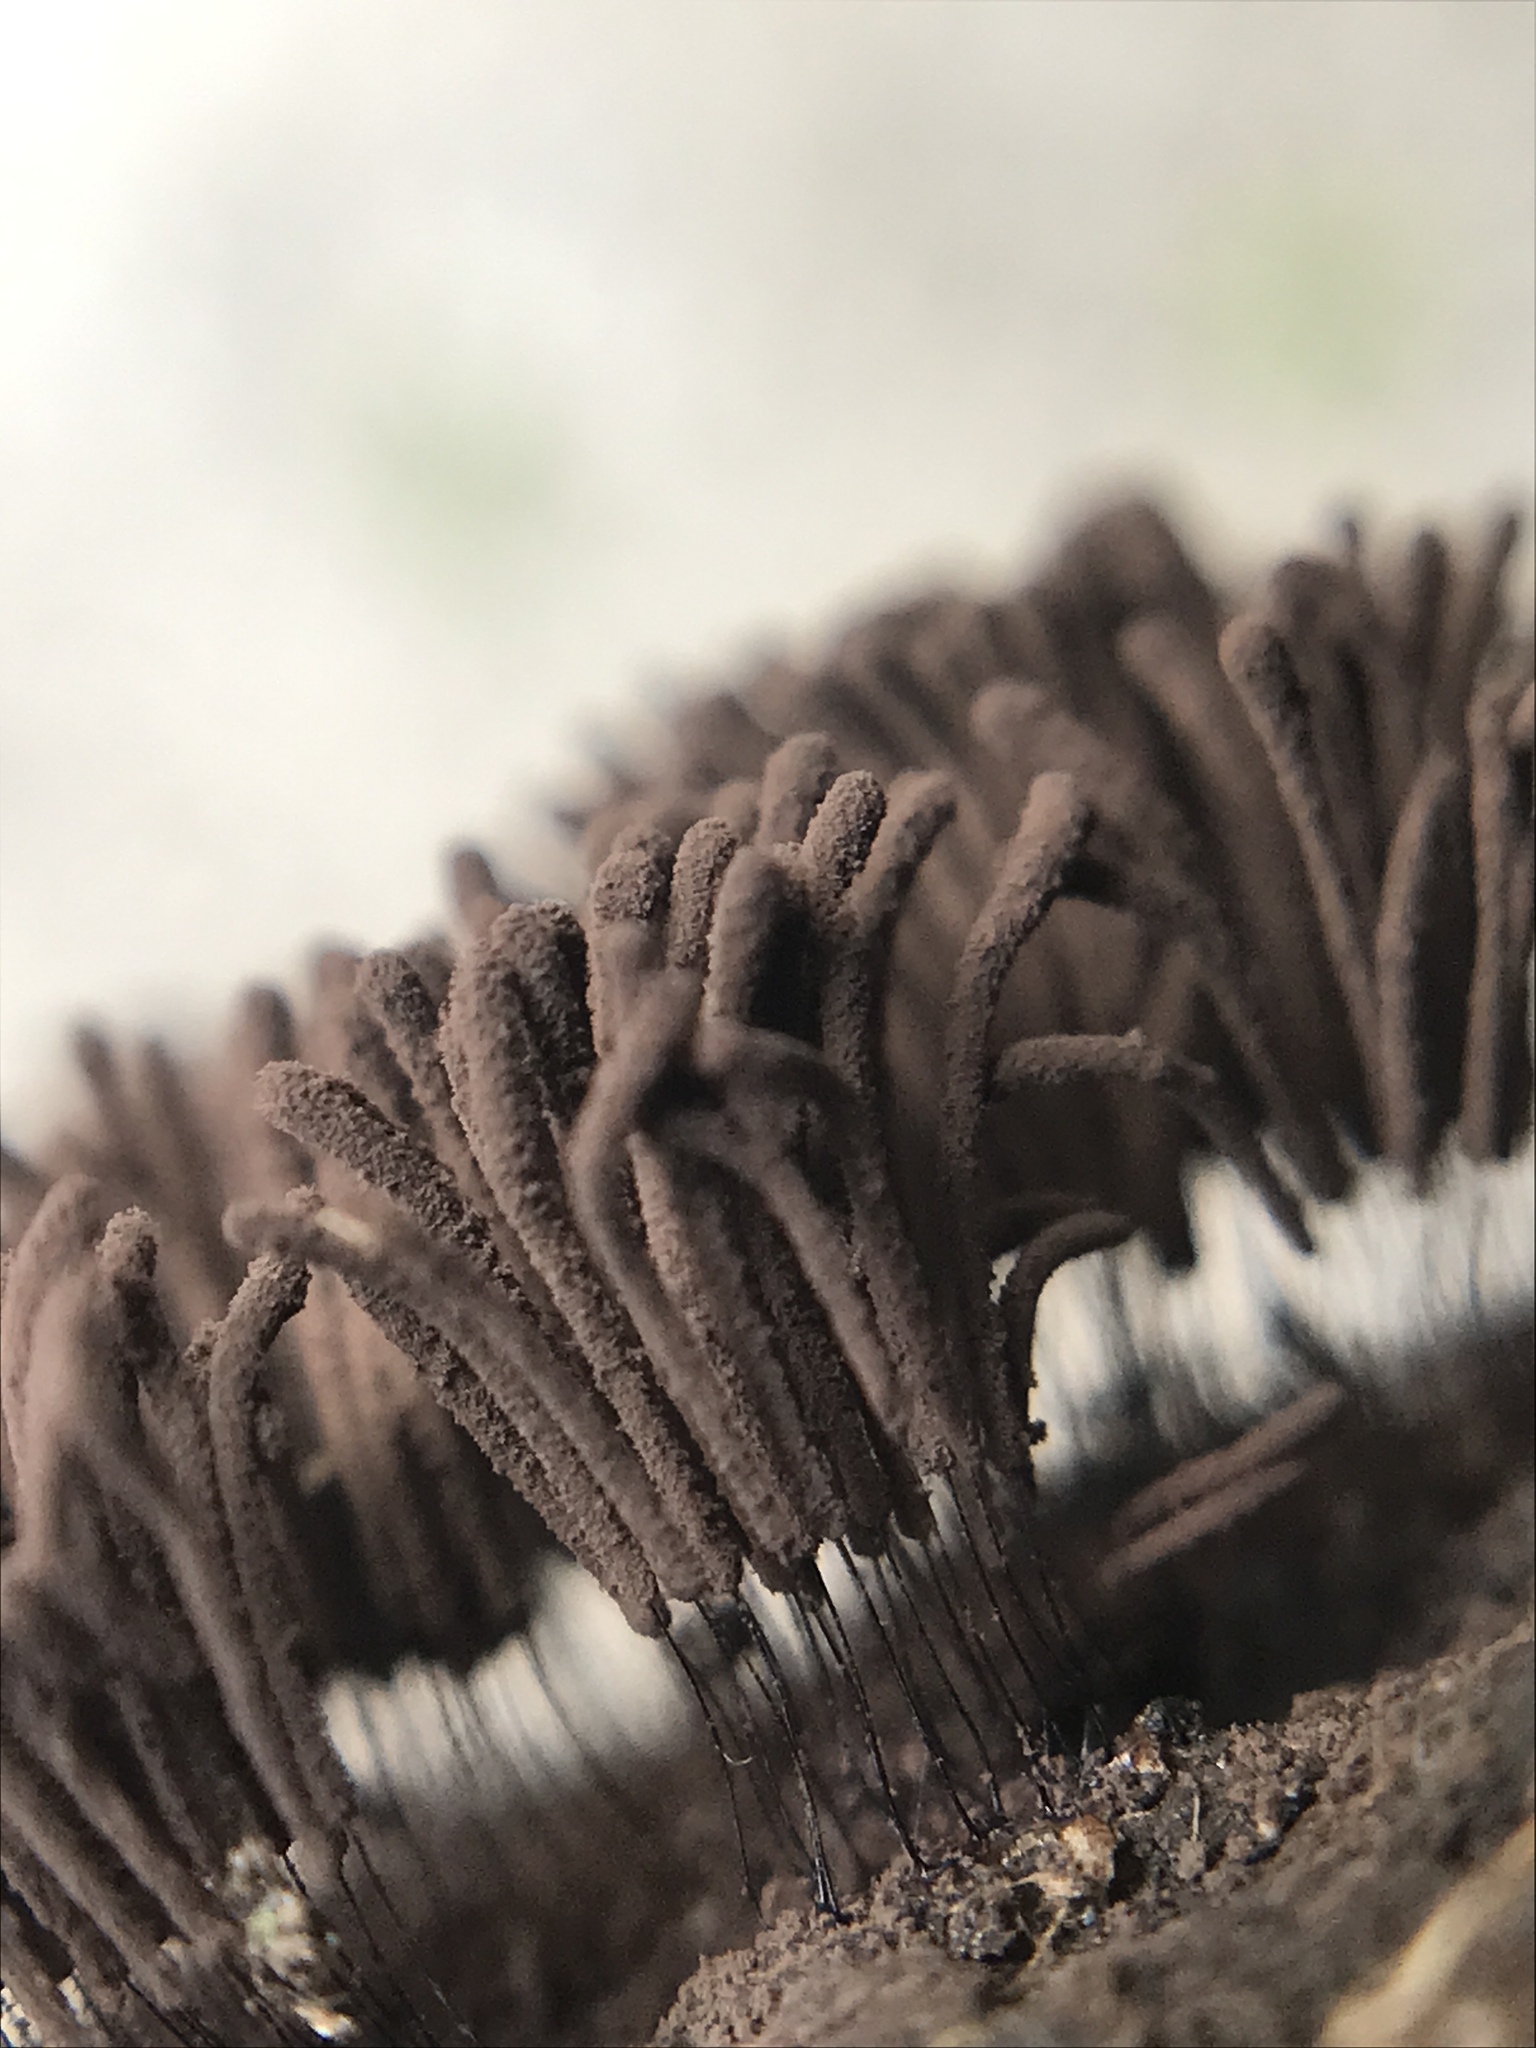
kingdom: Protozoa
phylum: Mycetozoa
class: Myxomycetes
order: Stemonitidales
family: Stemonitidaceae
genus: Stemonitis
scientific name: Stemonitis splendens
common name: Chocolate tube slime
